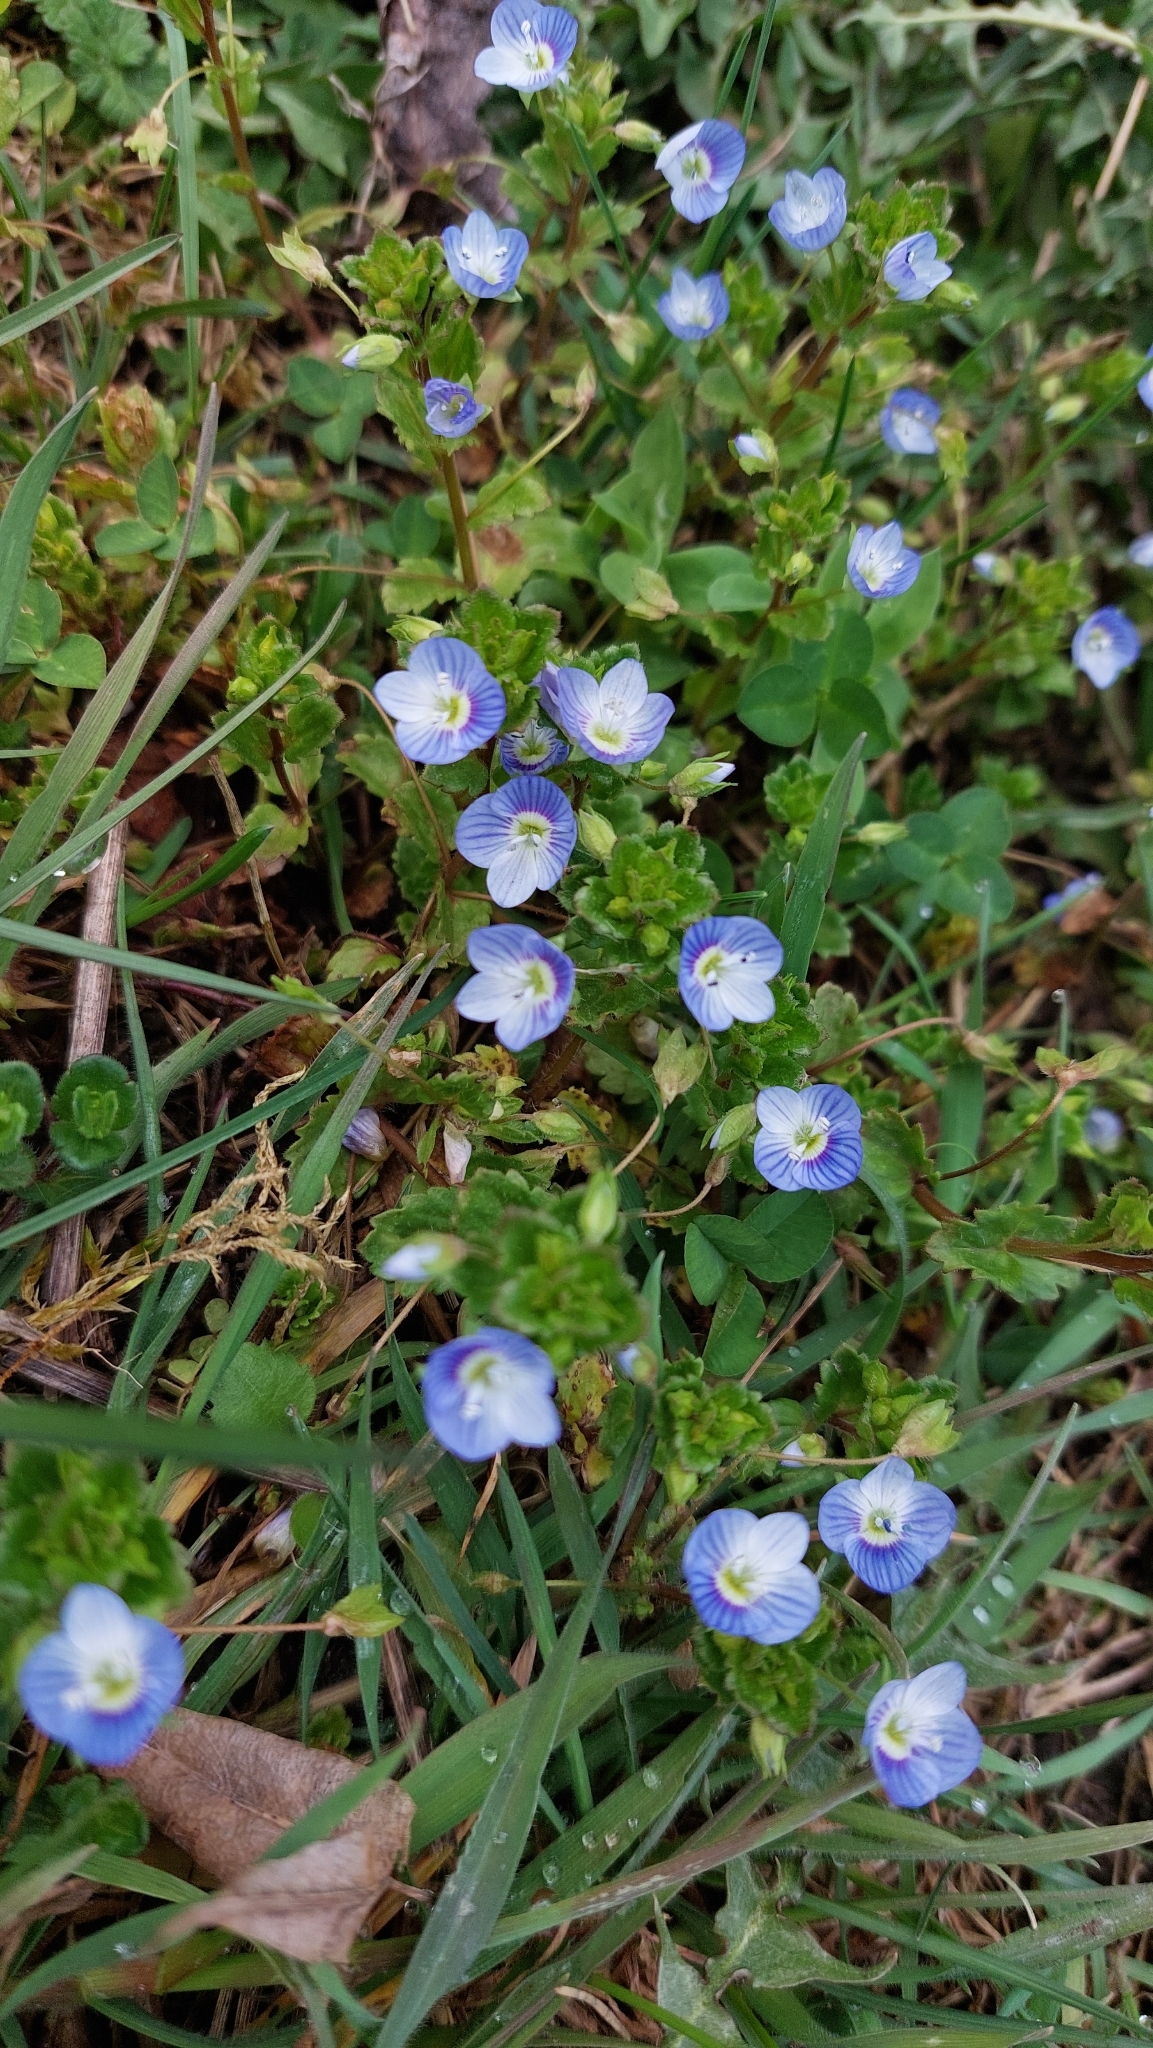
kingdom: Plantae
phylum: Tracheophyta
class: Magnoliopsida
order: Lamiales
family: Plantaginaceae
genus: Veronica
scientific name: Veronica persica
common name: Common field-speedwell
